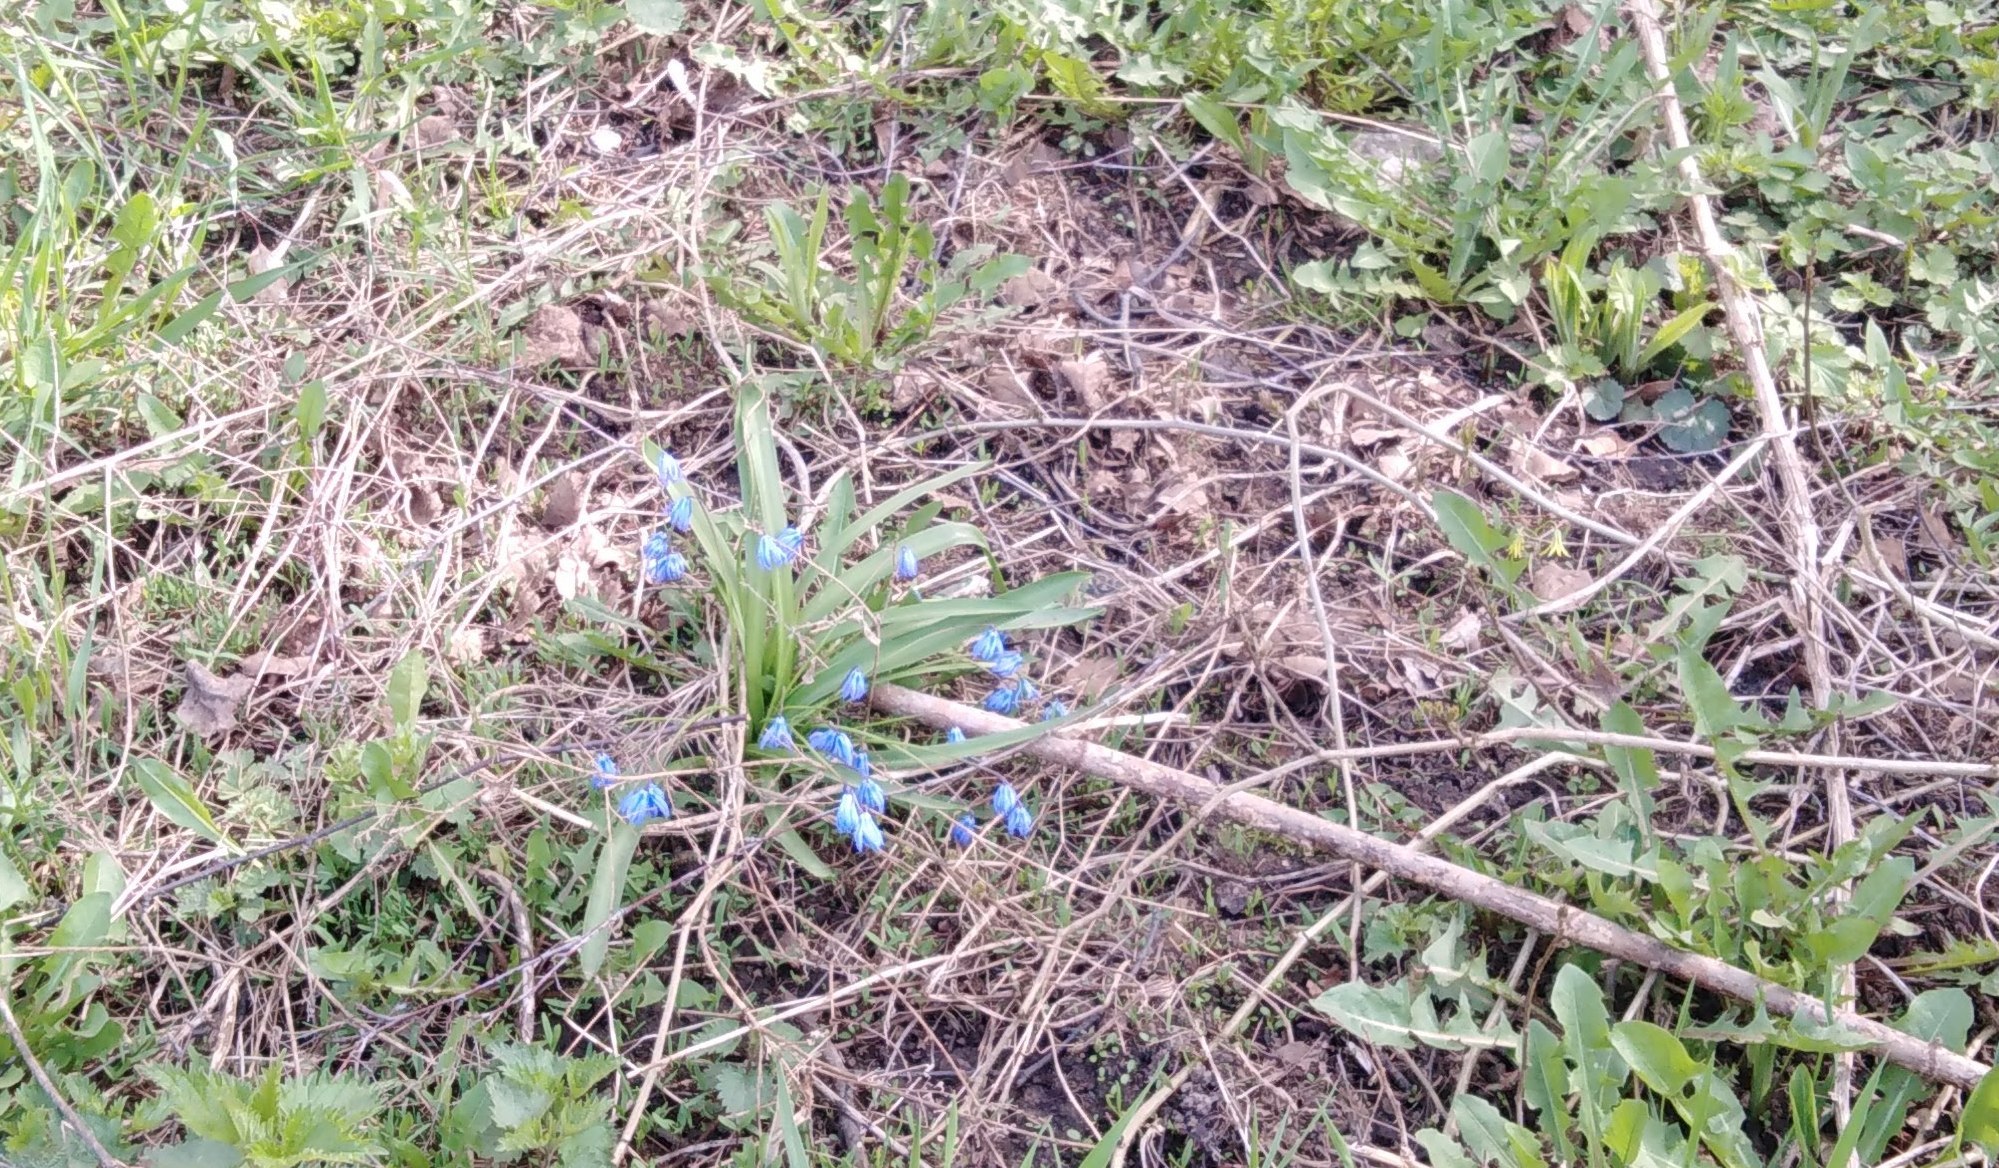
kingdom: Plantae
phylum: Tracheophyta
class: Liliopsida
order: Asparagales
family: Asparagaceae
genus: Scilla
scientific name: Scilla siberica
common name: Siberian squill
